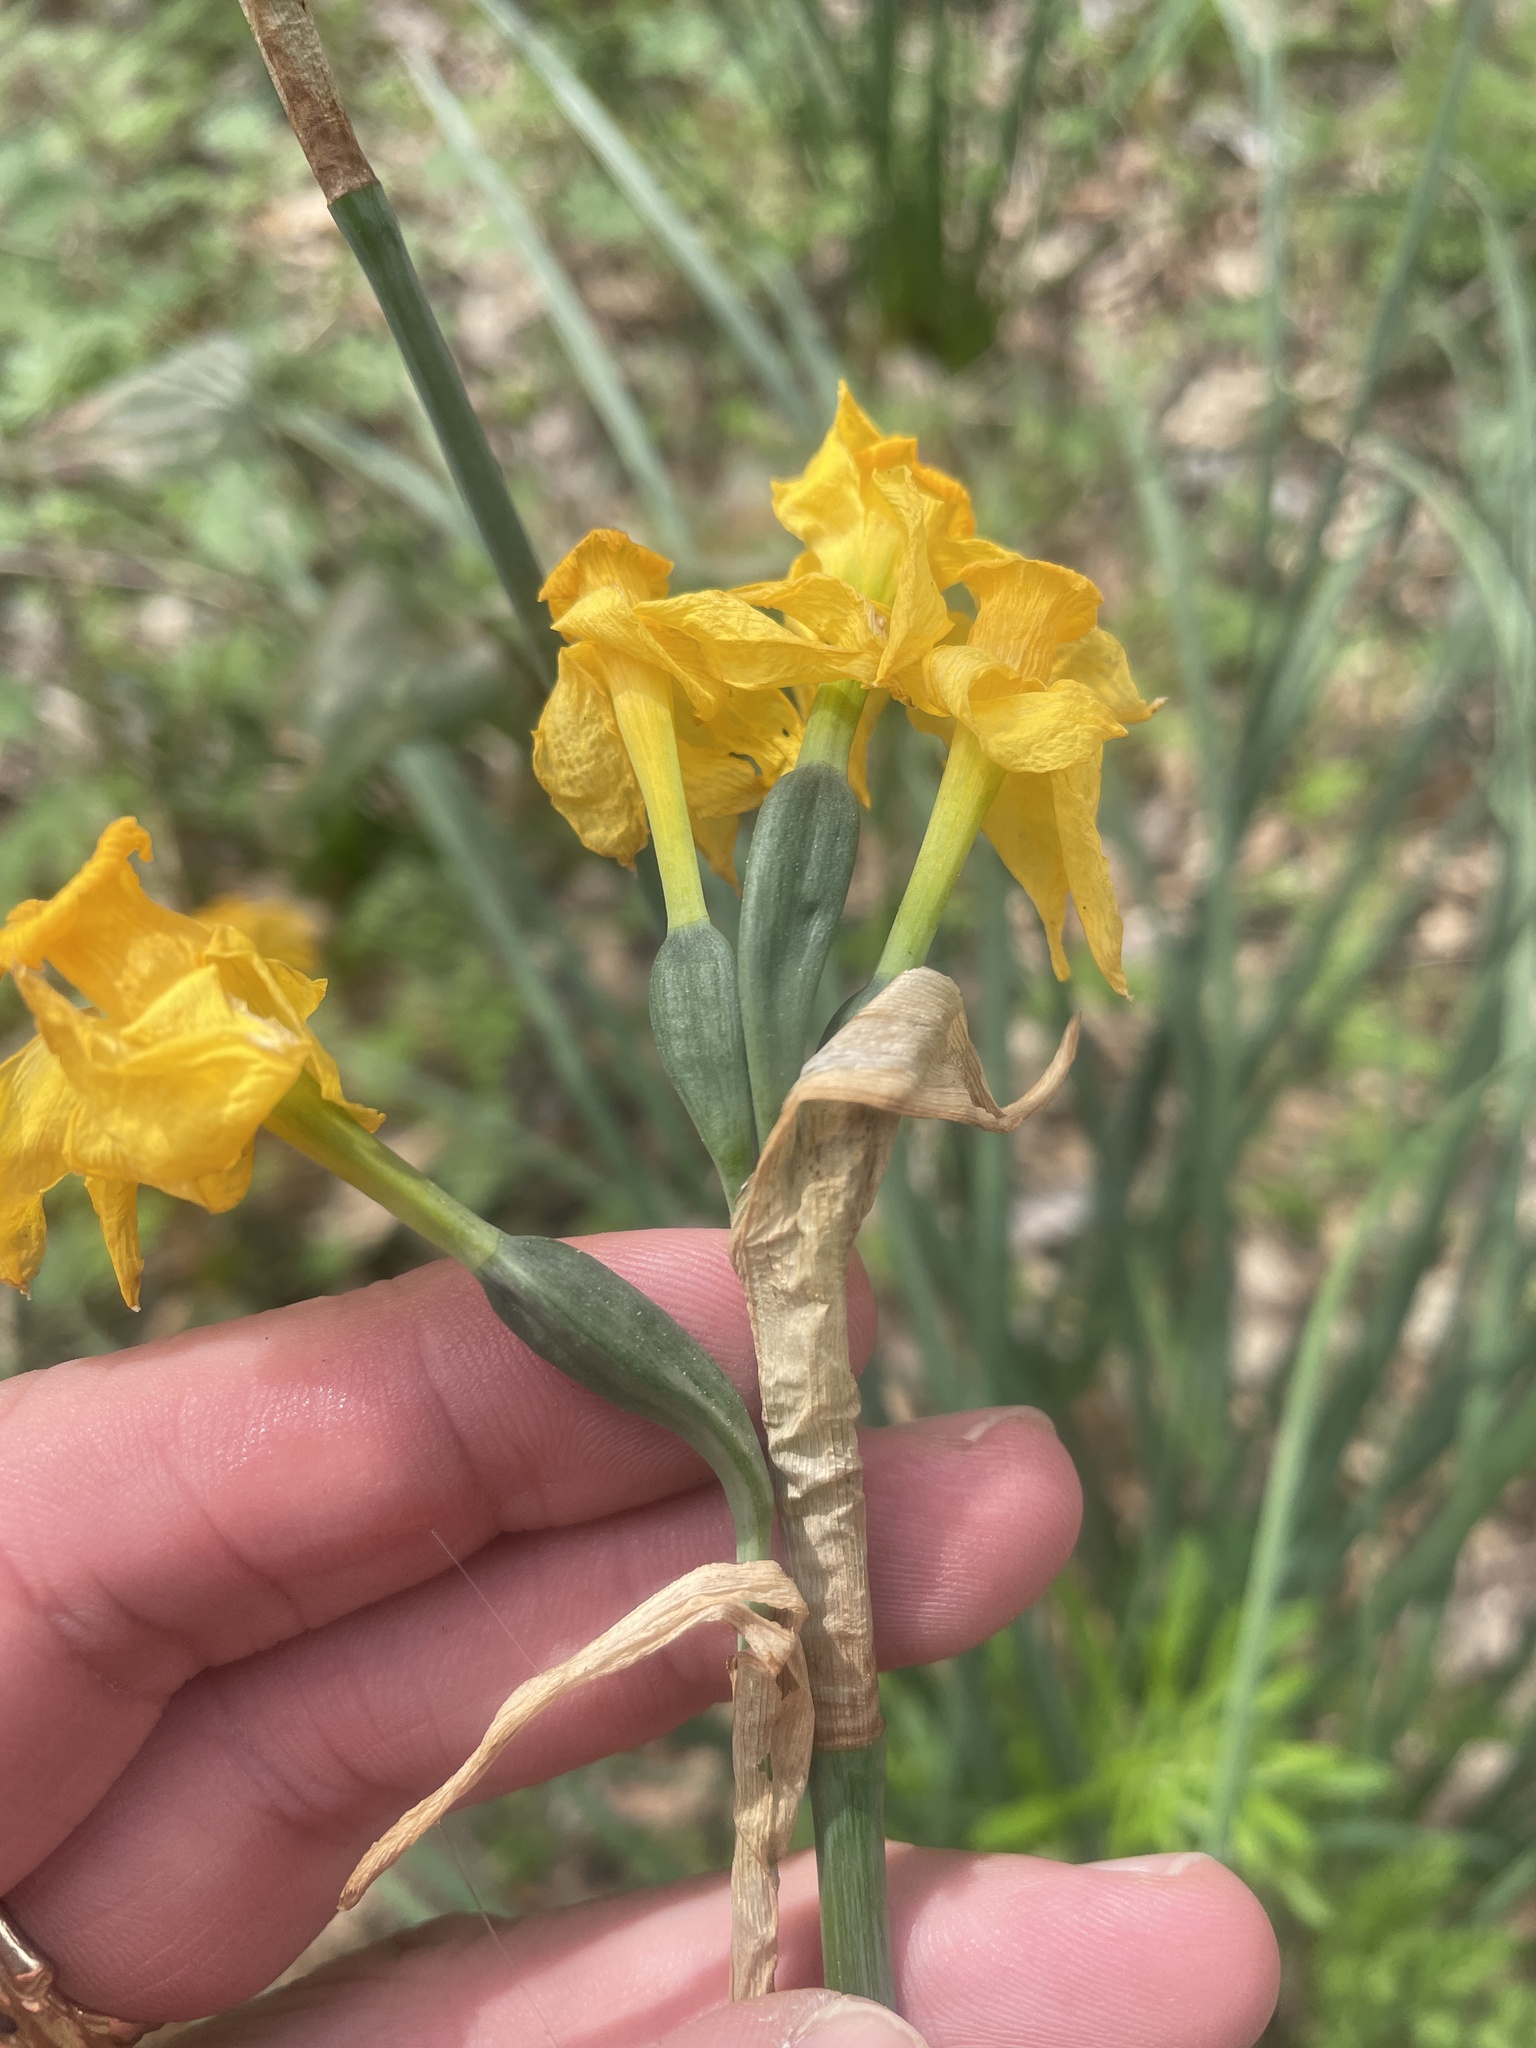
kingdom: Plantae
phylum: Tracheophyta
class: Liliopsida
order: Asparagales
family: Amaryllidaceae
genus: Narcissus
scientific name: Narcissus jonquilla
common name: Jonquil
